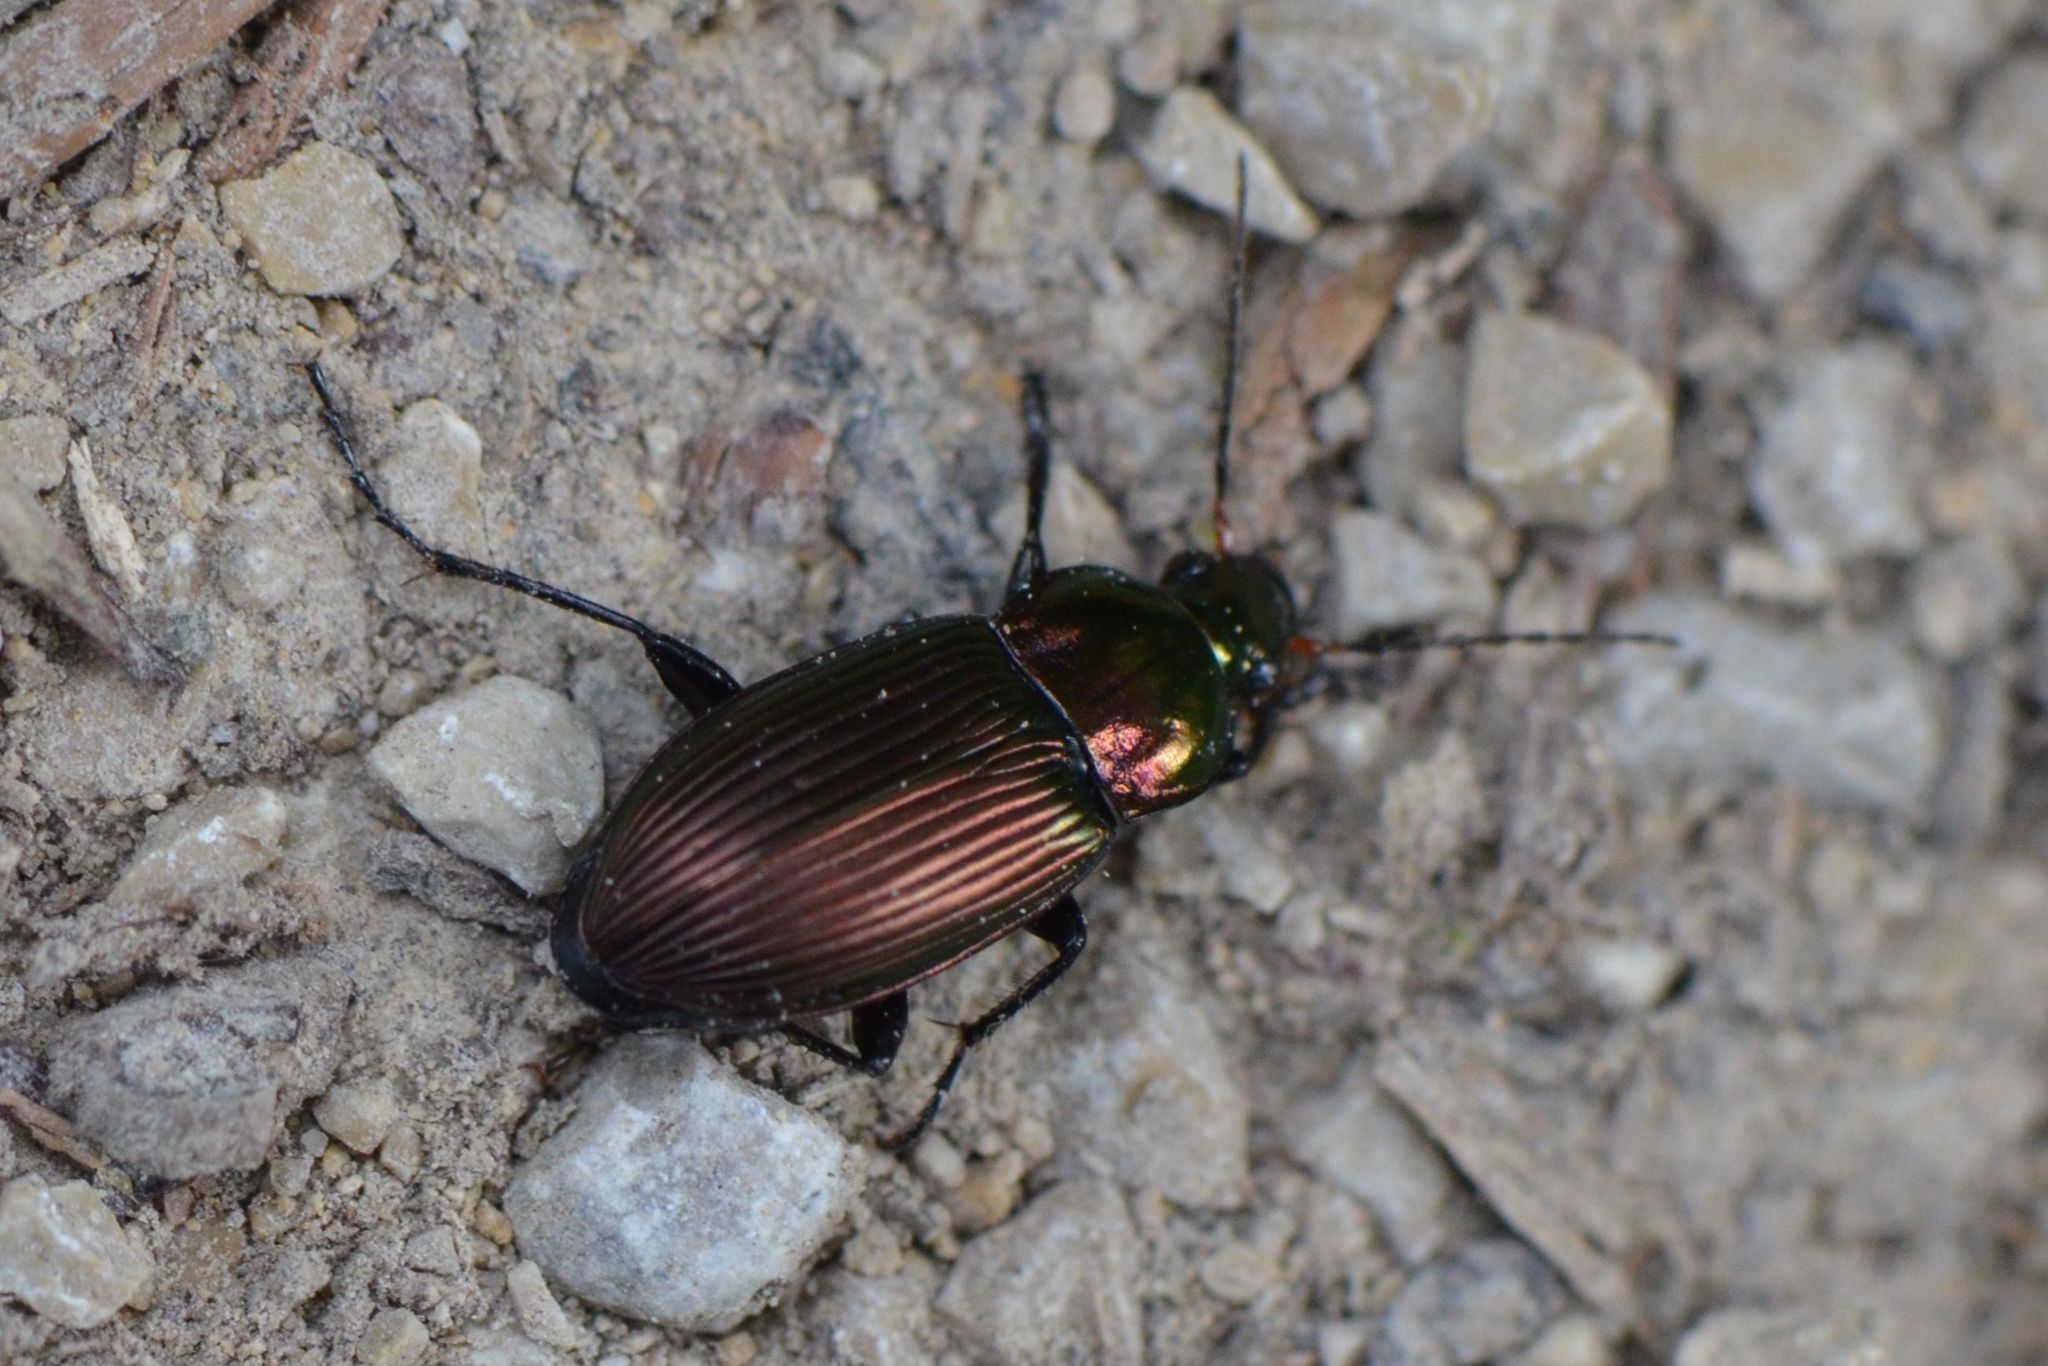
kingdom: Animalia
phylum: Arthropoda
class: Insecta
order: Coleoptera
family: Carabidae
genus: Poecilus
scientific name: Poecilus cupreus
